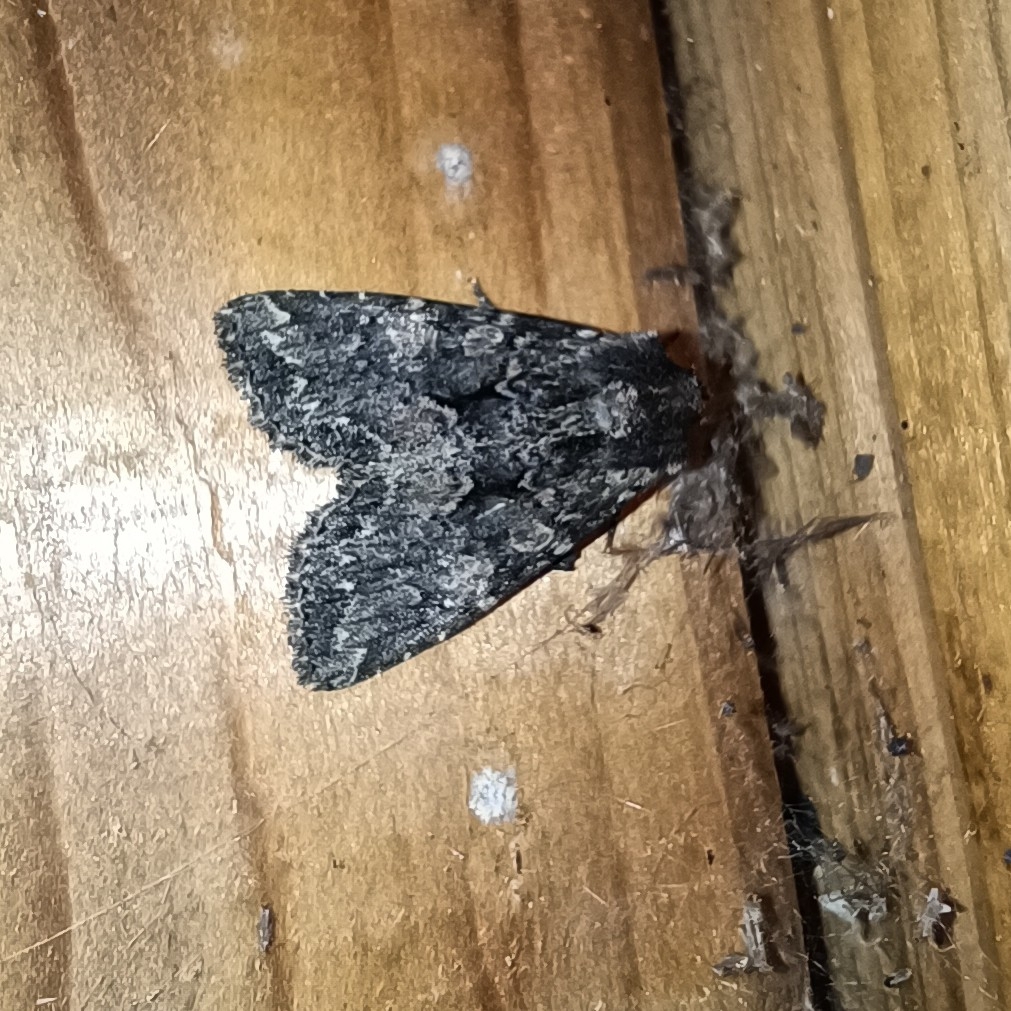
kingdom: Animalia
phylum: Arthropoda
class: Insecta
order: Lepidoptera
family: Noctuidae
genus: Mniotype
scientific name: Mniotype satura
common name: Beautiful arches
